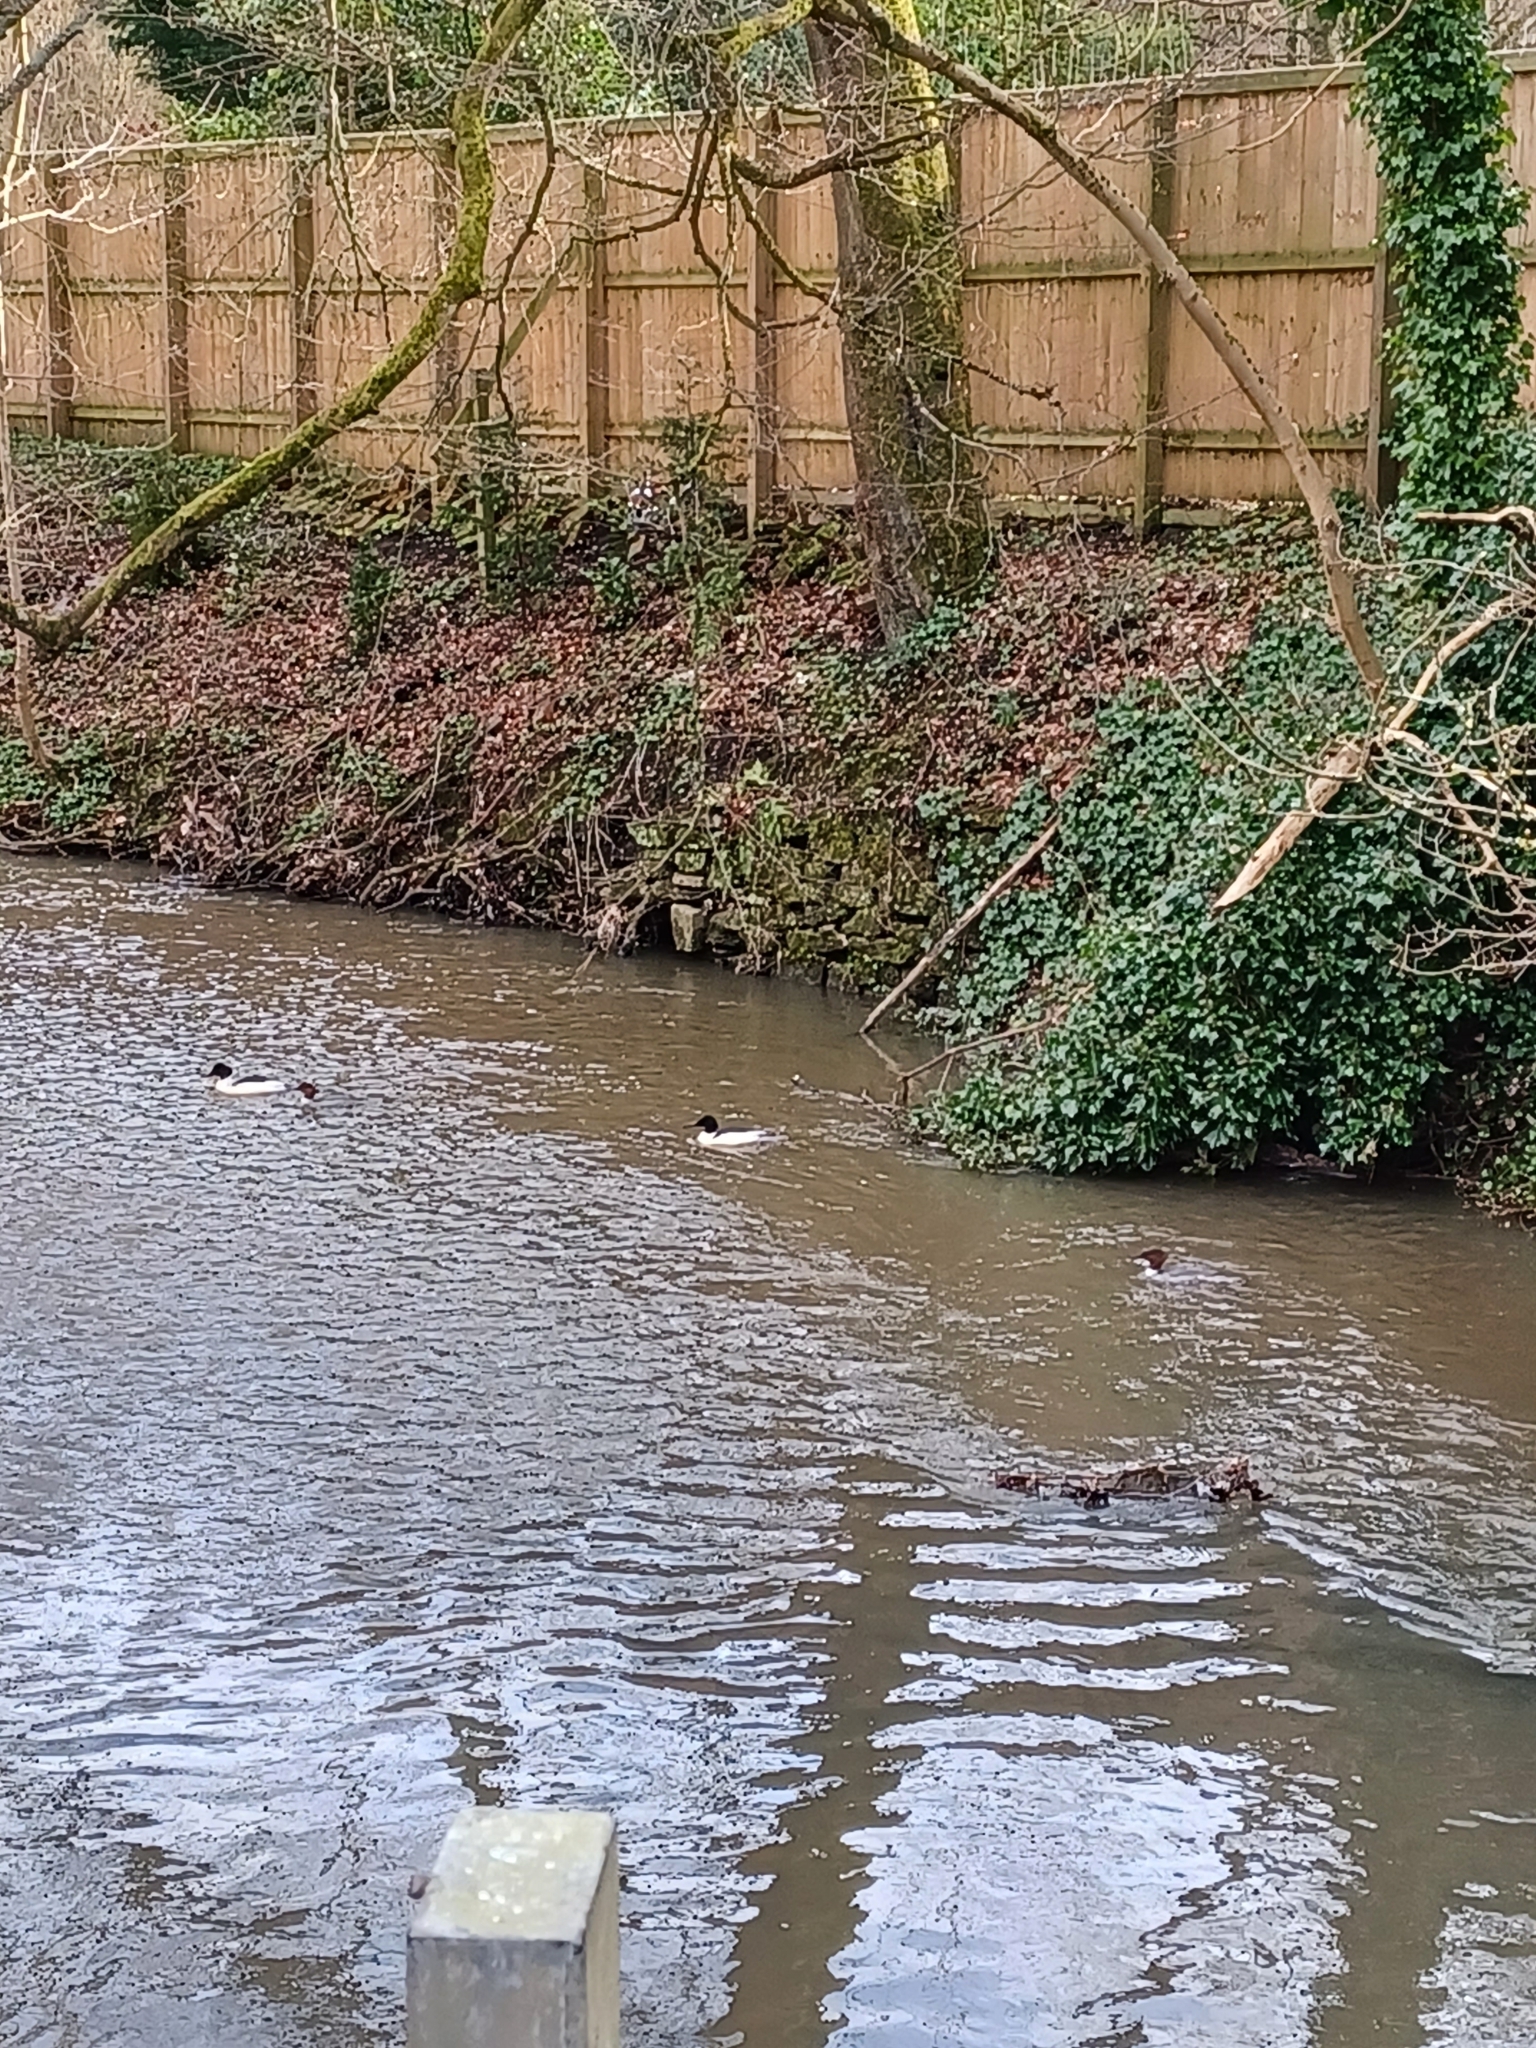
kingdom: Animalia
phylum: Chordata
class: Aves
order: Anseriformes
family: Anatidae
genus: Mergus
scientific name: Mergus merganser
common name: Common merganser
